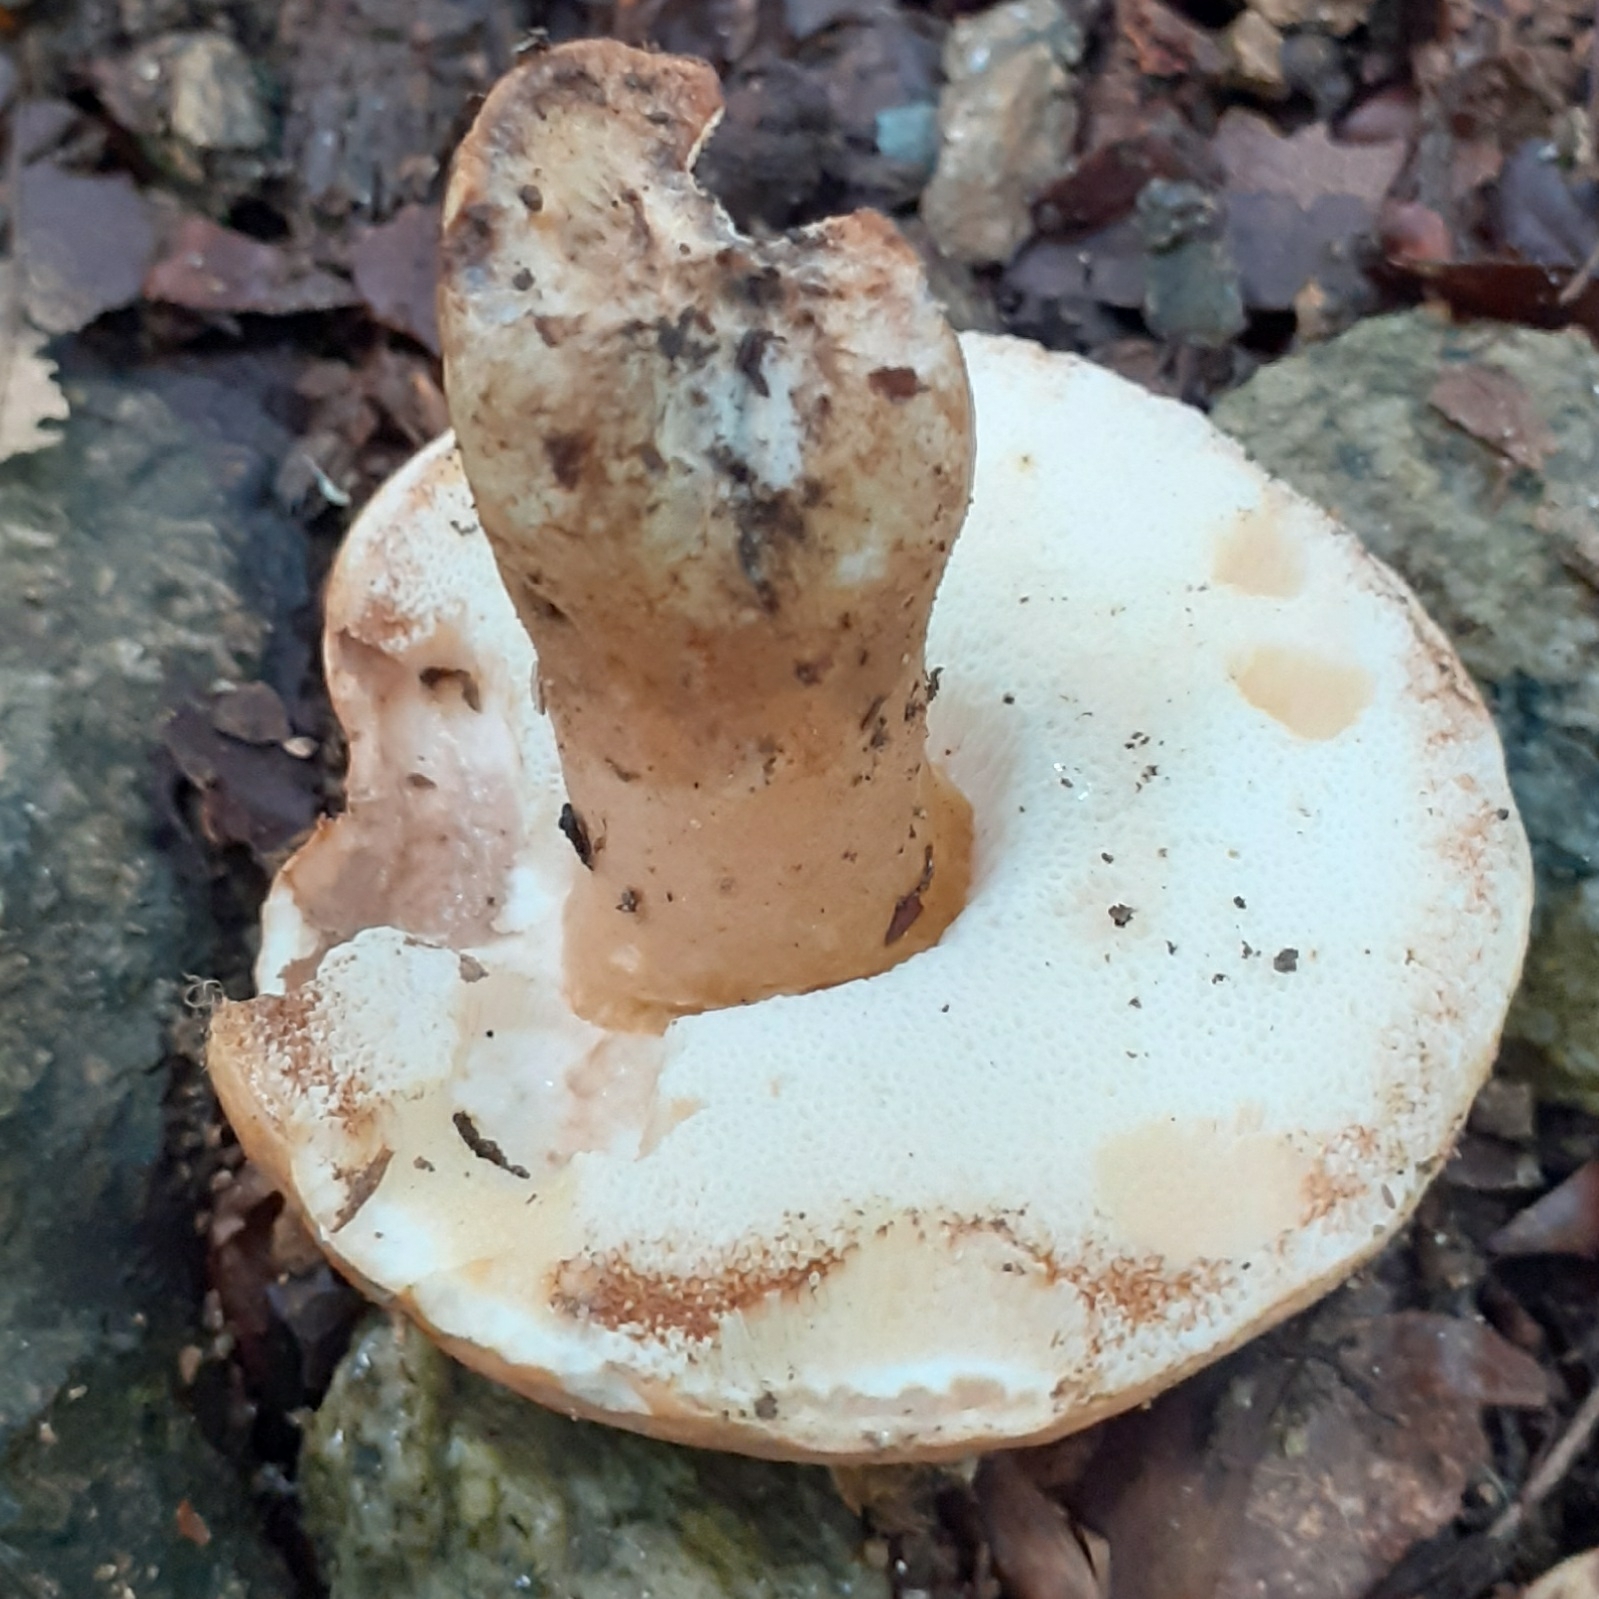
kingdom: Fungi
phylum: Basidiomycota
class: Agaricomycetes
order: Boletales
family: Gyroporaceae
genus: Gyroporus
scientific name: Gyroporus castaneus
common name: Chestnut bolete
